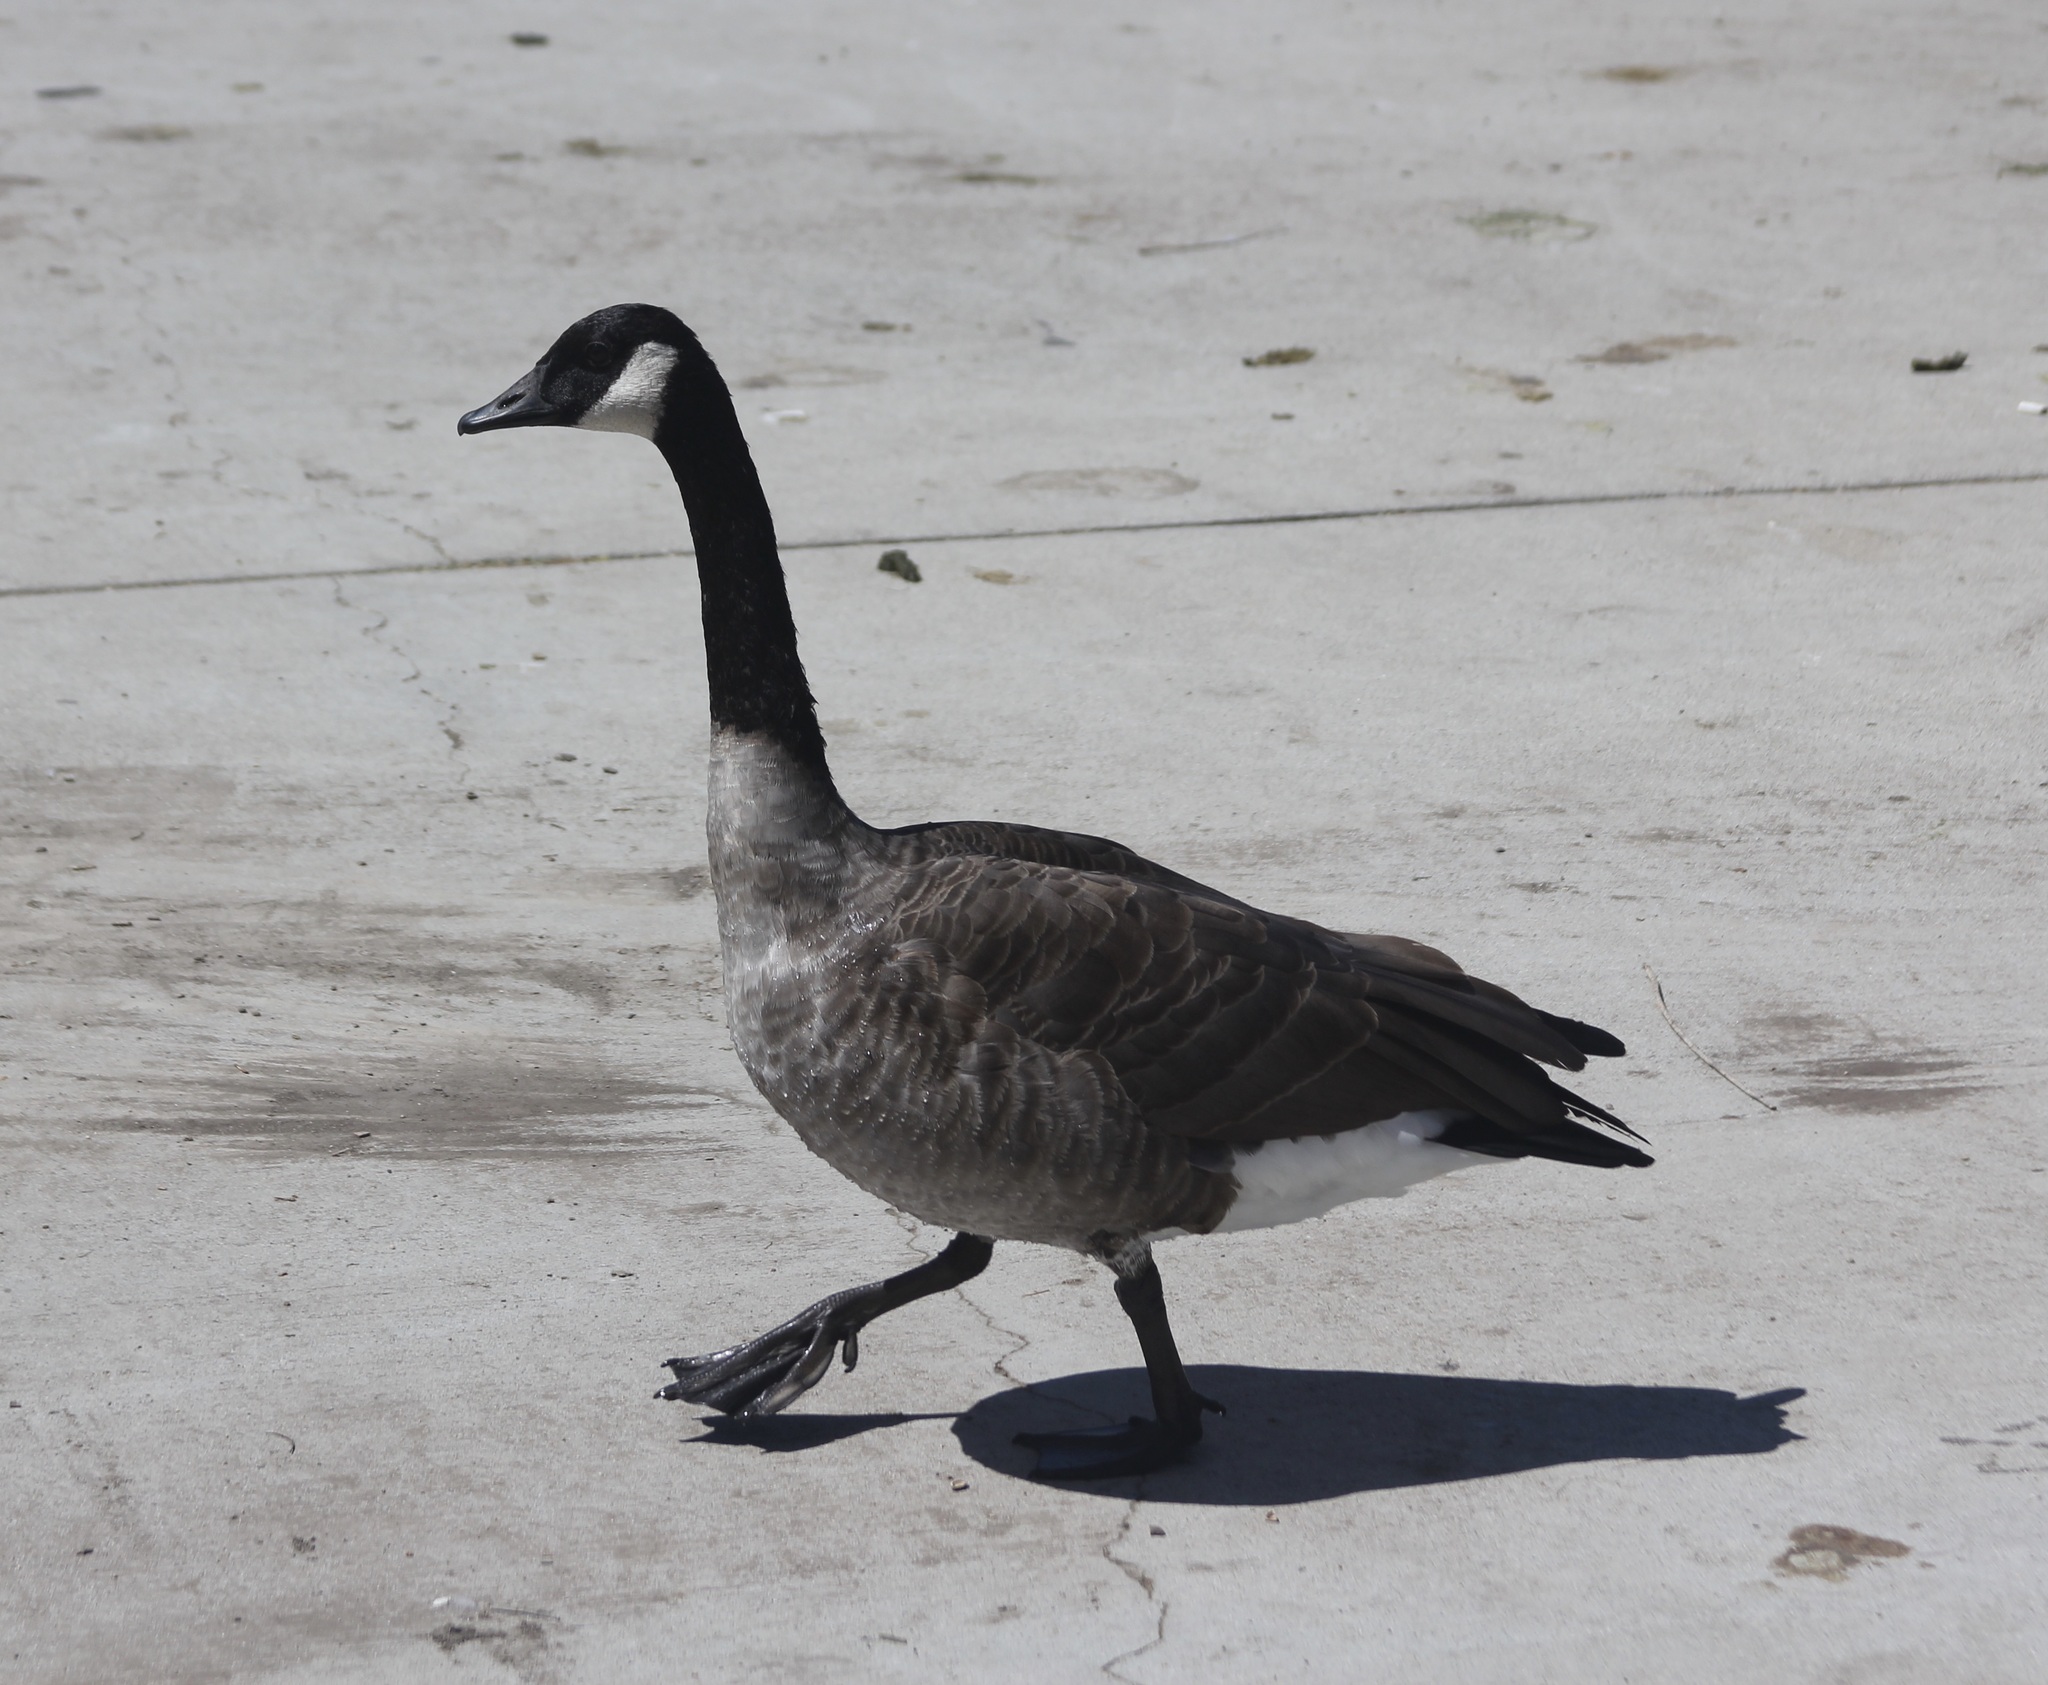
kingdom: Animalia
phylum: Chordata
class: Aves
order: Anseriformes
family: Anatidae
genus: Branta
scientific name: Branta canadensis
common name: Canada goose
